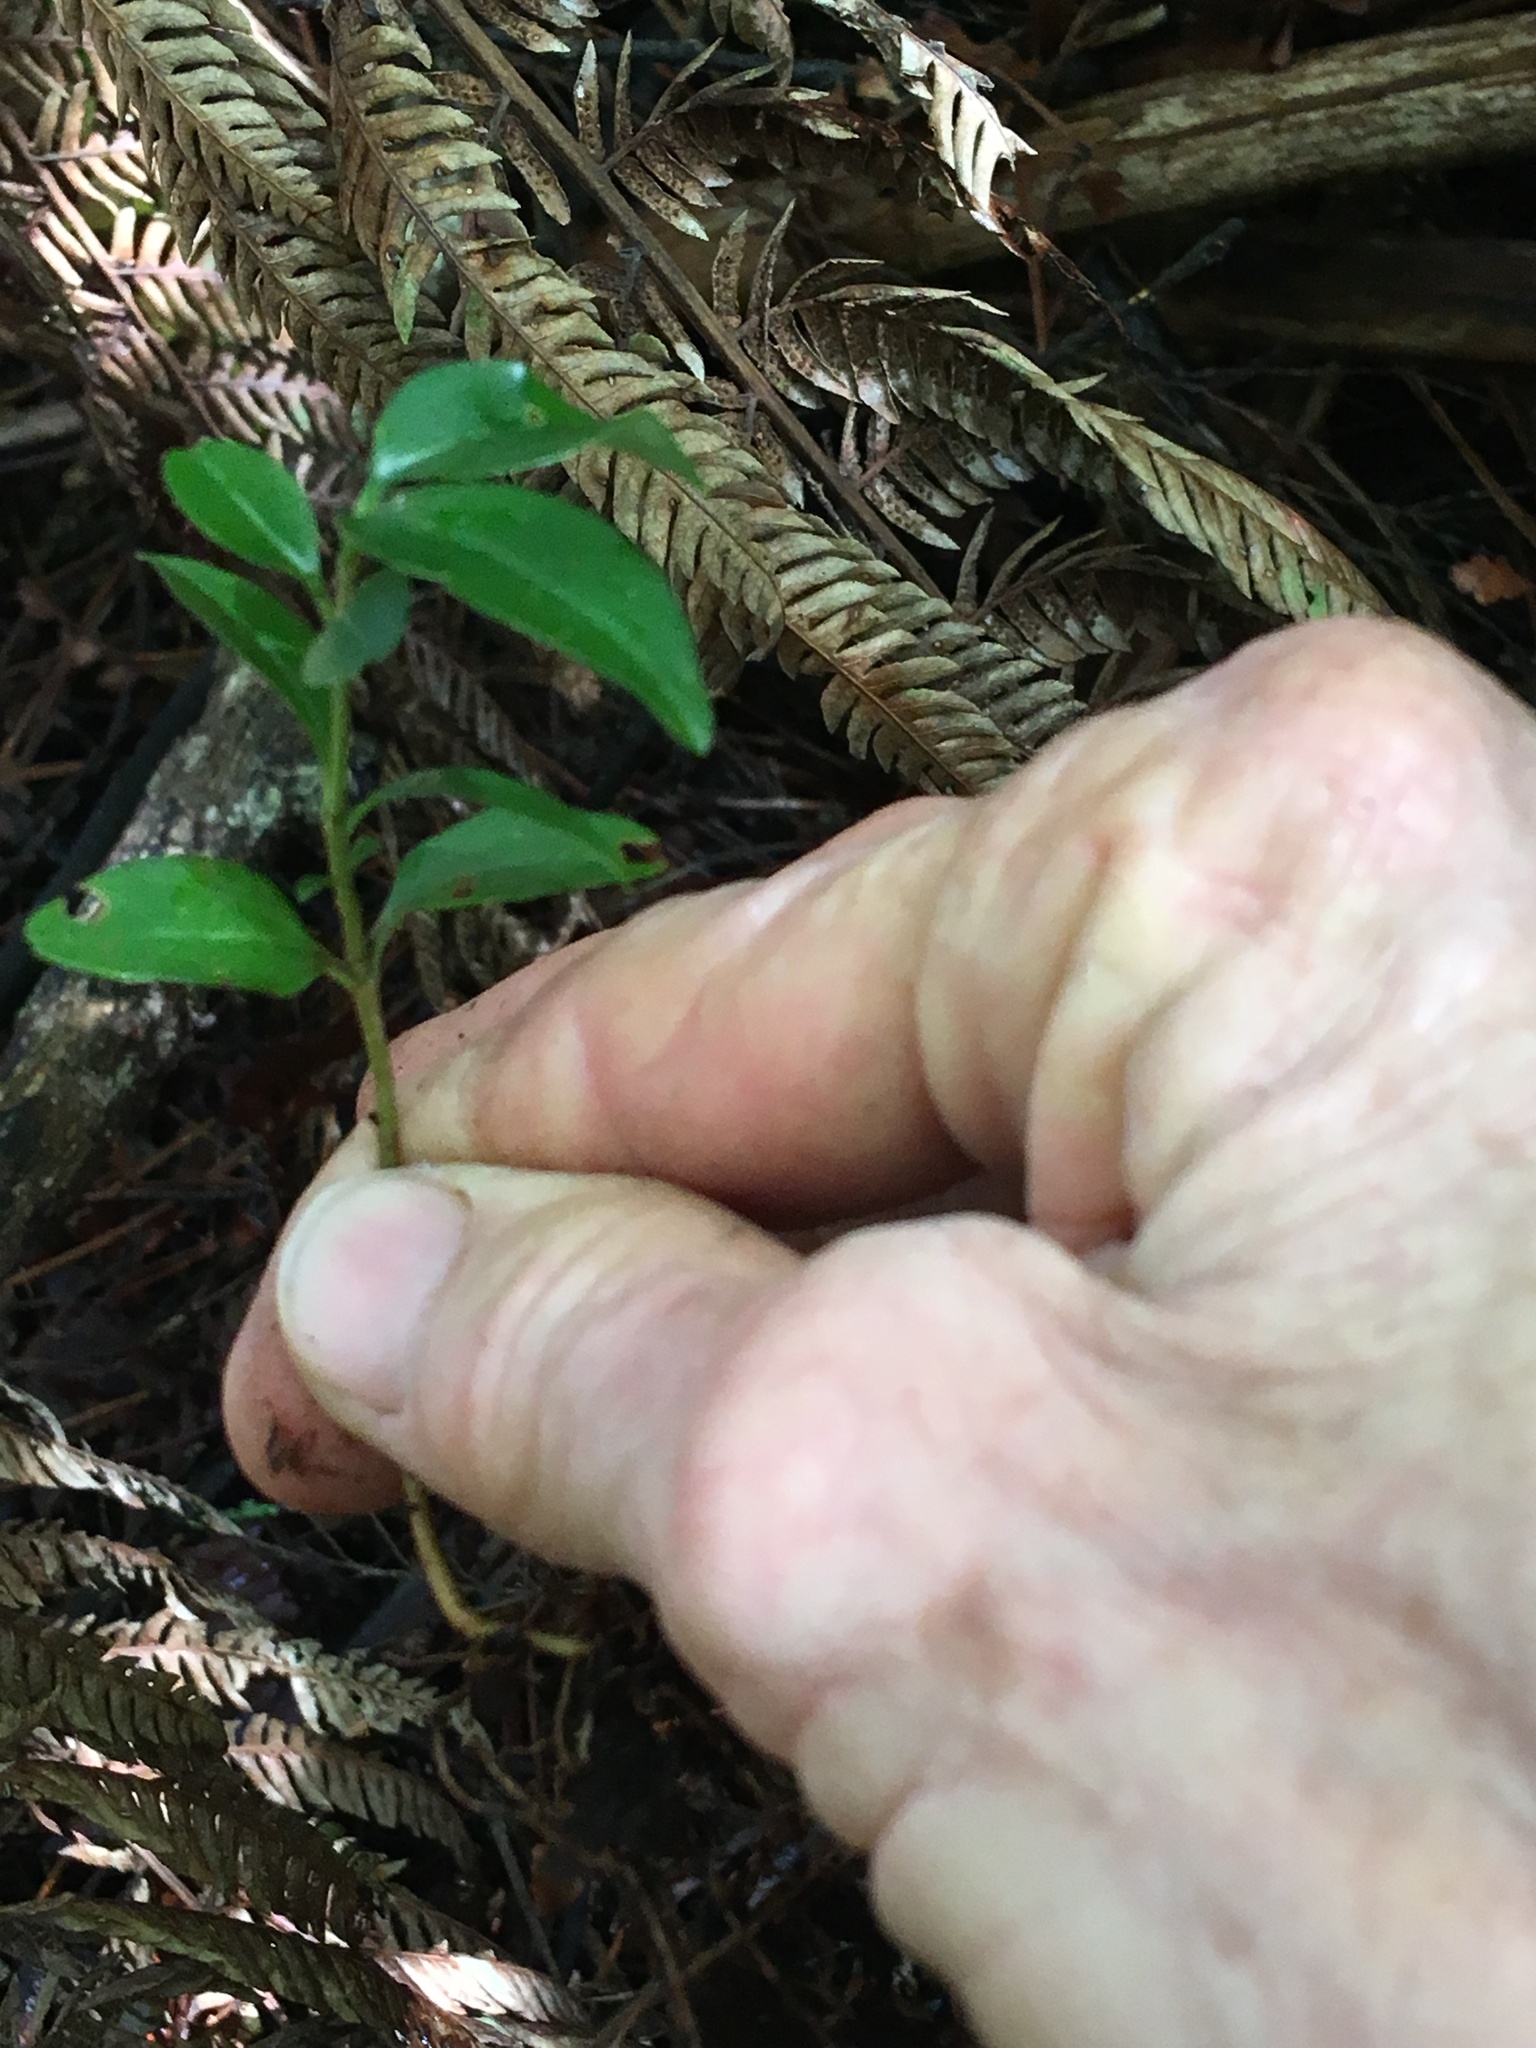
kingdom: Plantae
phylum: Tracheophyta
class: Magnoliopsida
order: Lamiales
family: Oleaceae
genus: Ligustrum
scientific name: Ligustrum lucidum
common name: Glossy privet
